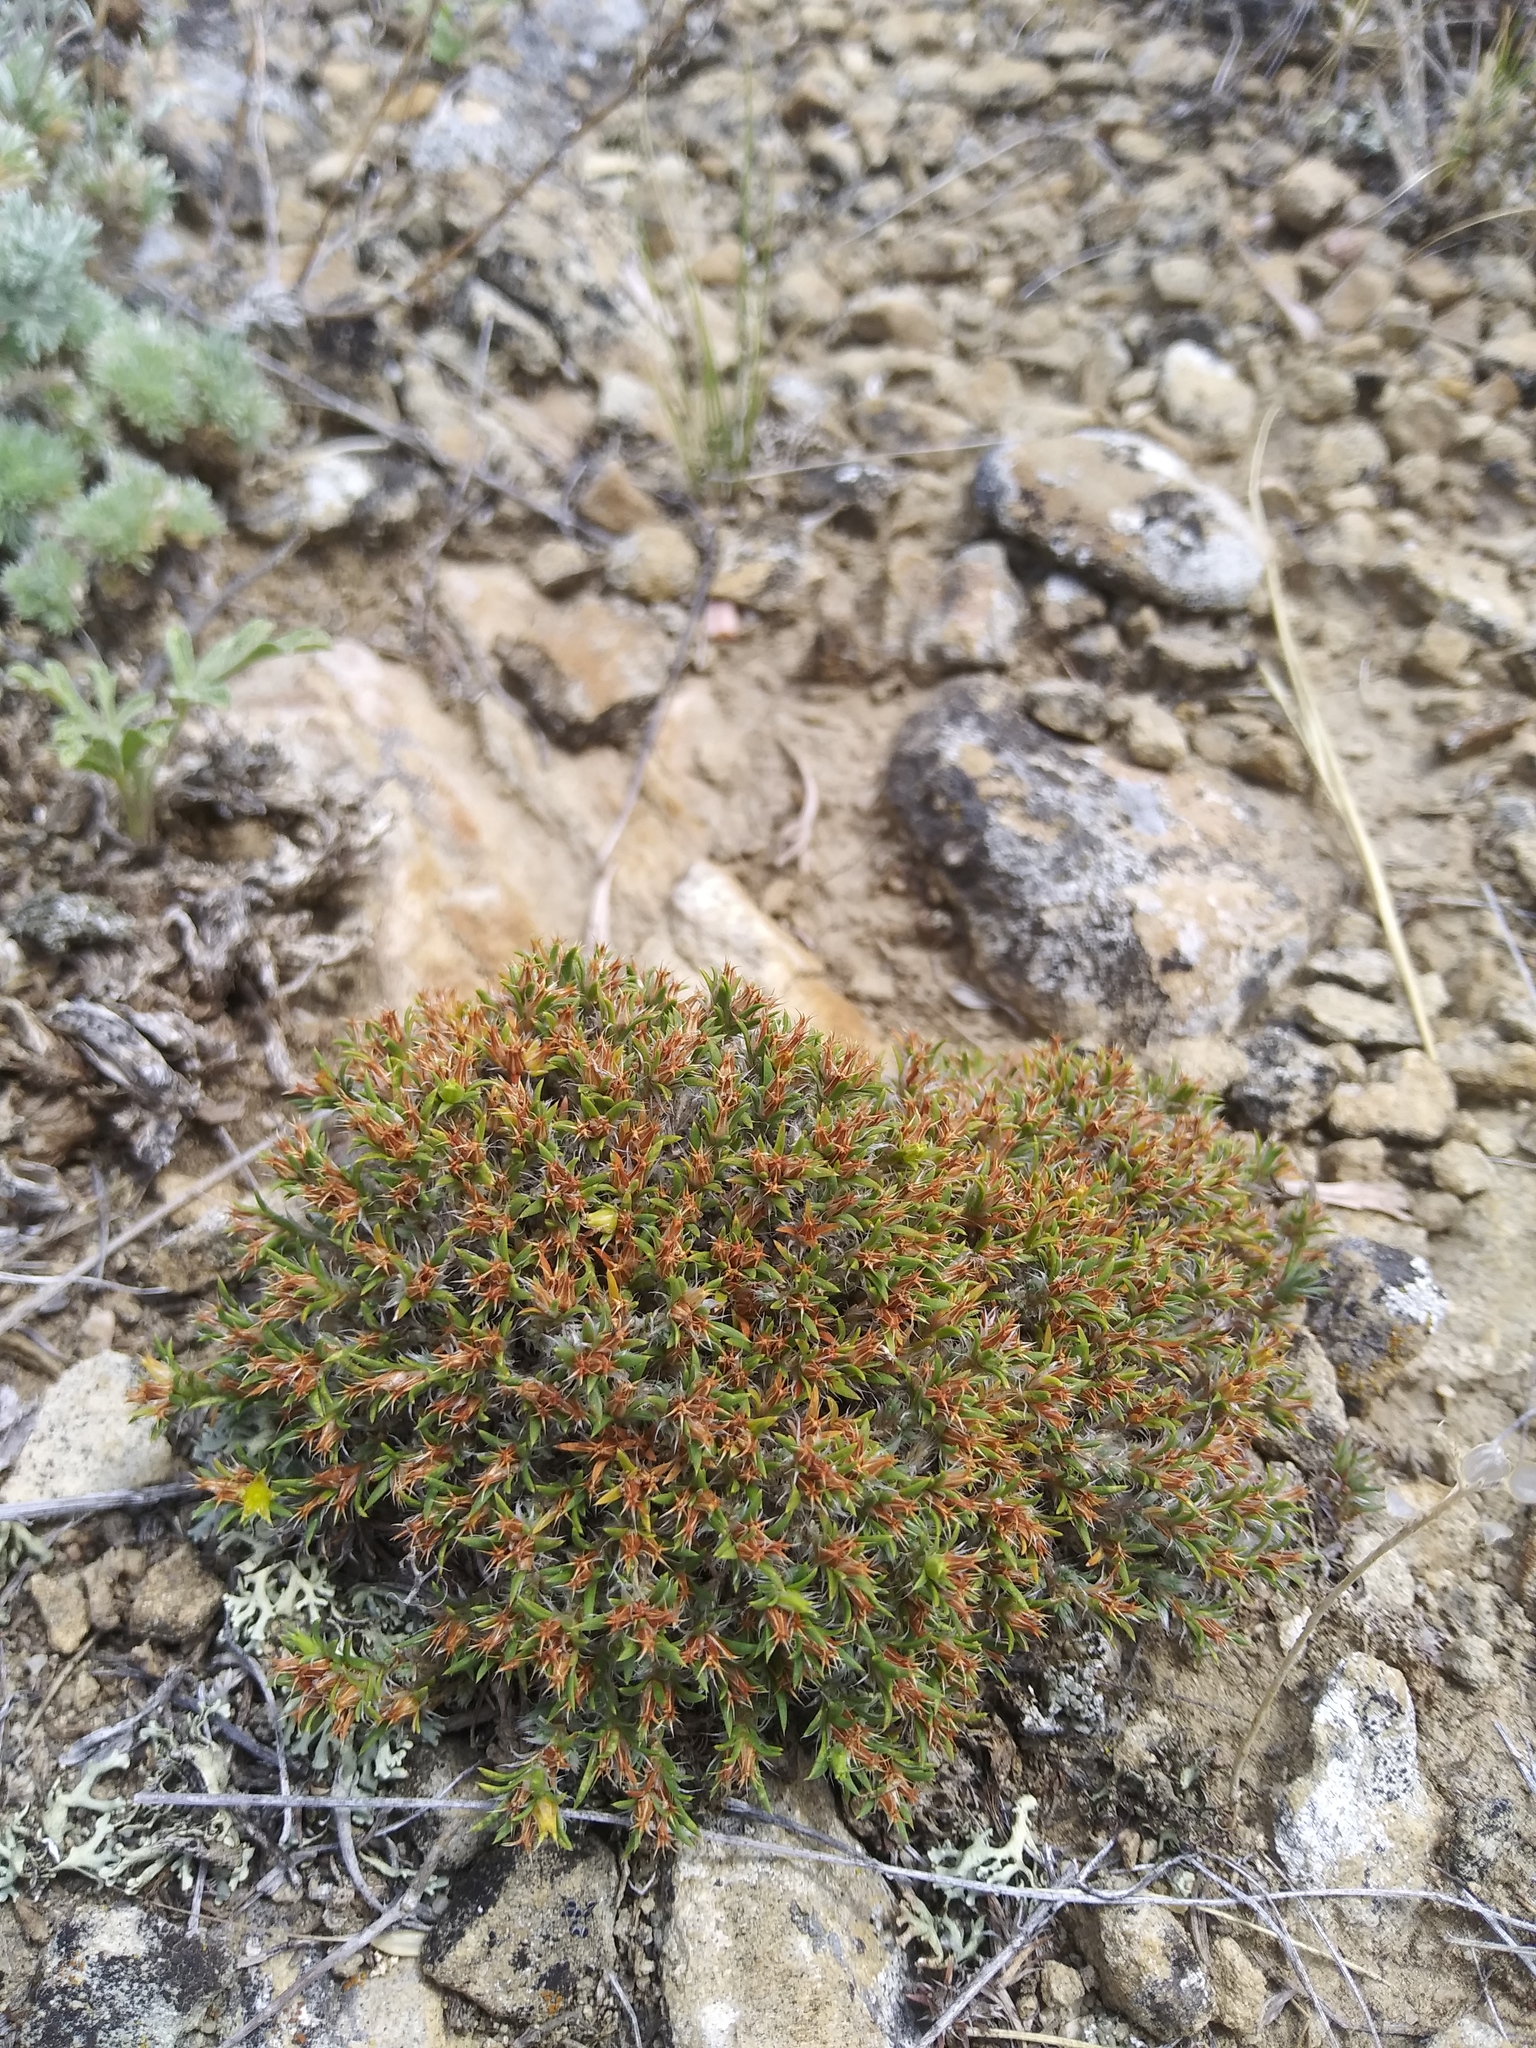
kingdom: Plantae
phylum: Tracheophyta
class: Magnoliopsida
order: Caryophyllales
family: Caryophyllaceae
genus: Paronychia
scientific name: Paronychia sessiliflora
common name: Creeping nailwort
